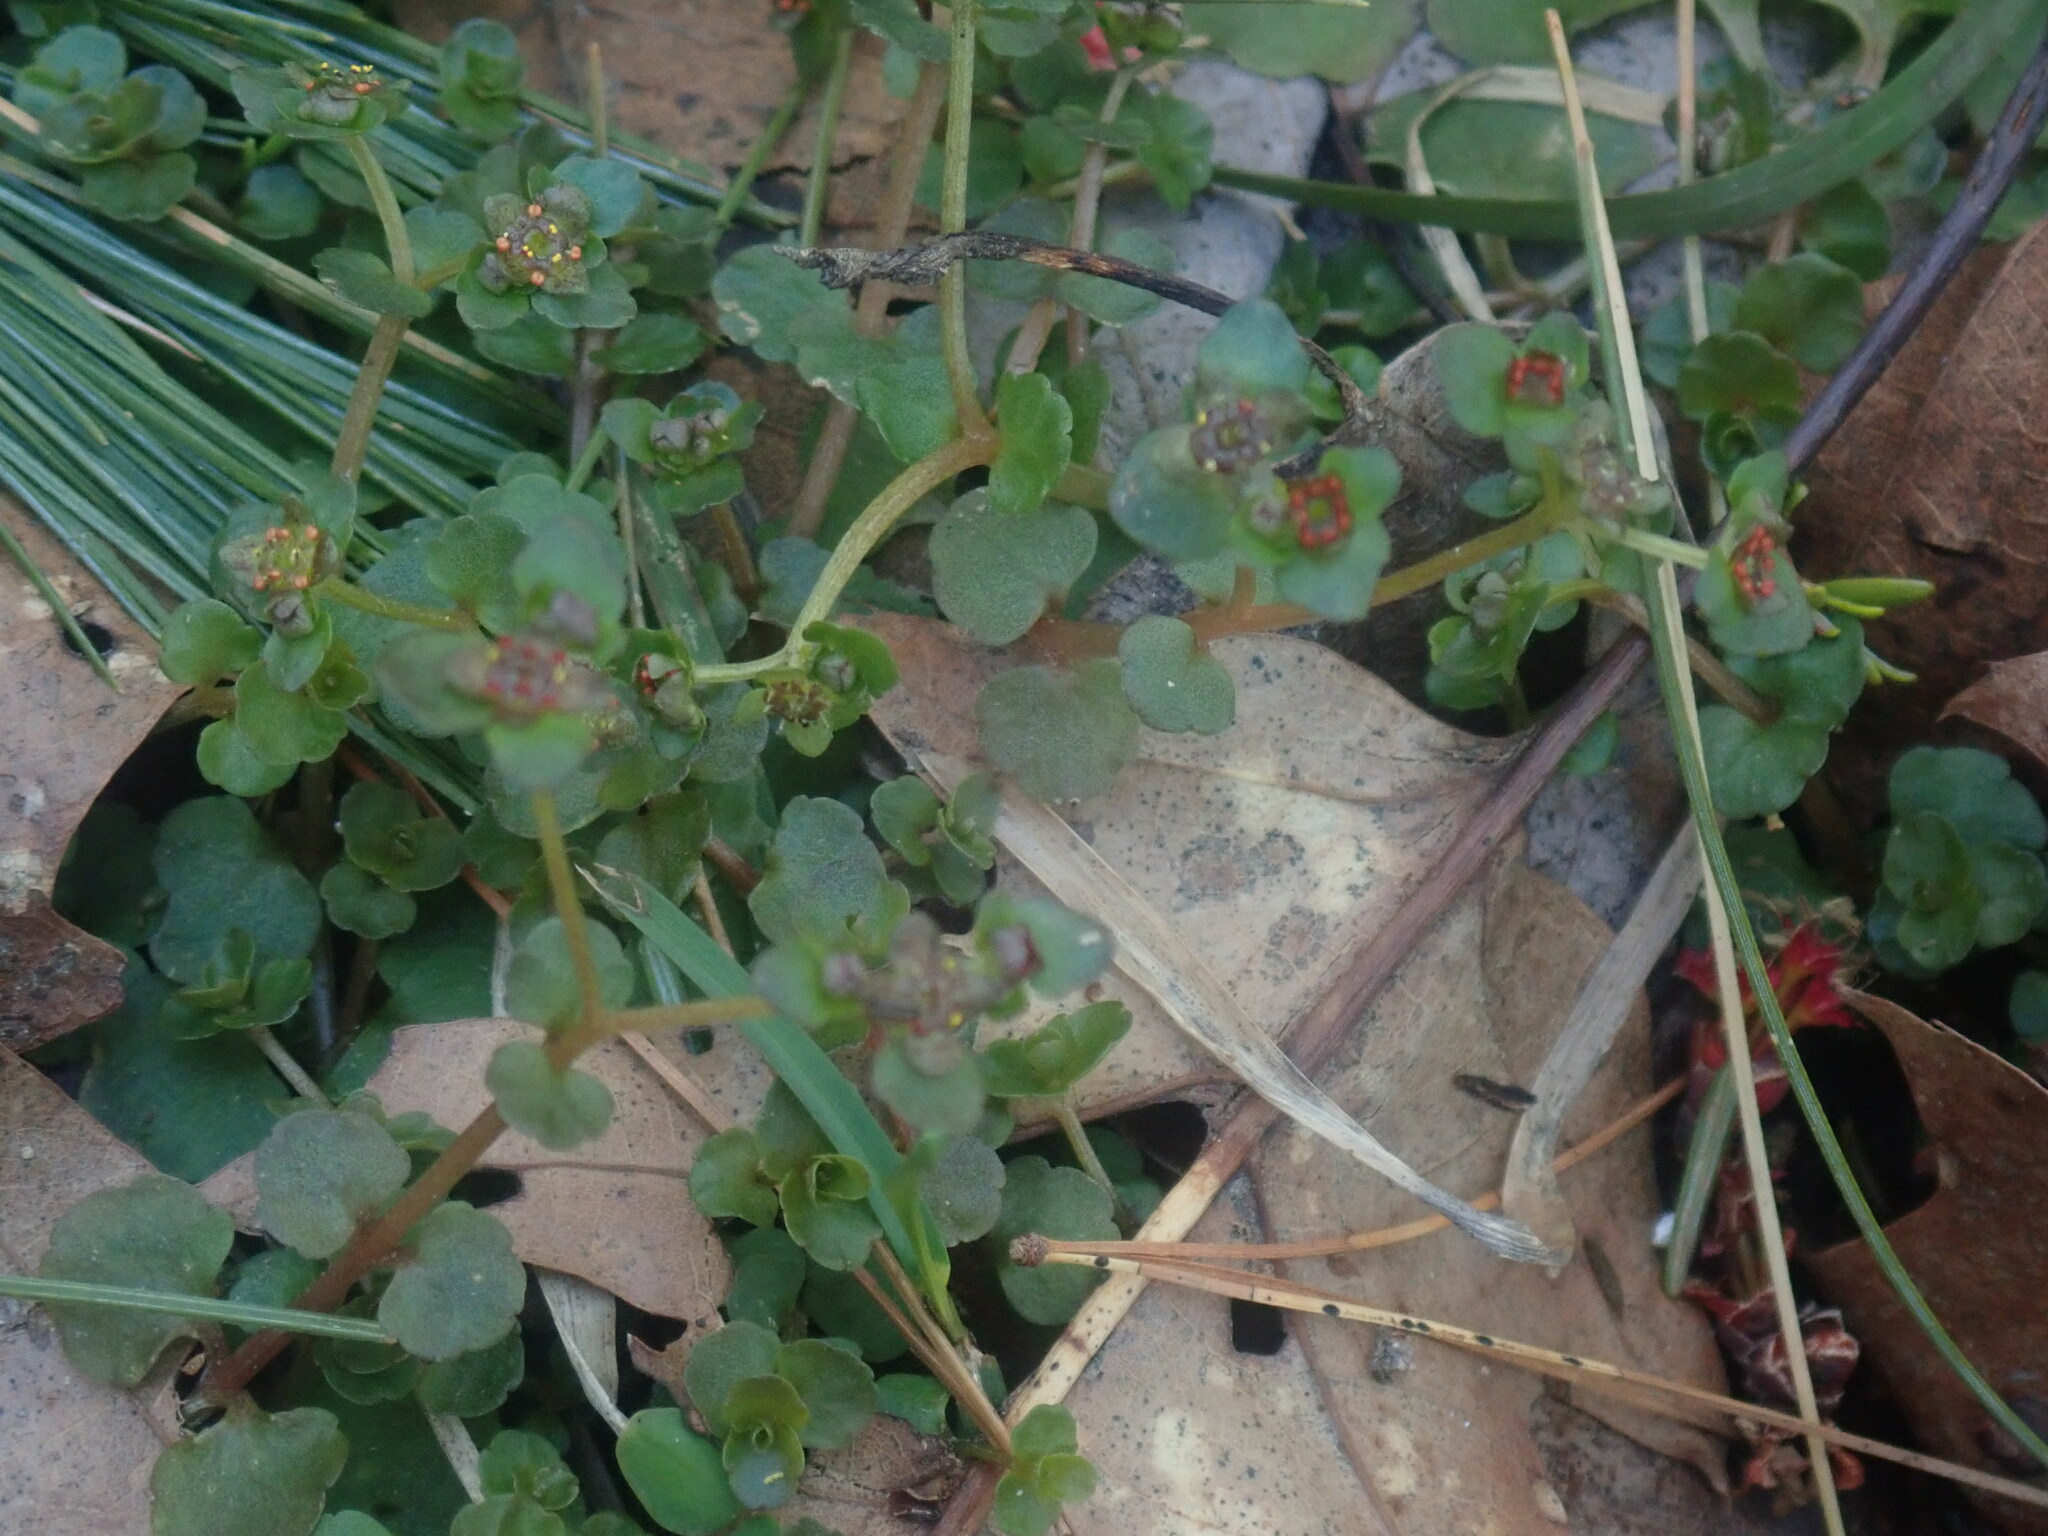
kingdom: Plantae
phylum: Tracheophyta
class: Magnoliopsida
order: Saxifragales
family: Saxifragaceae
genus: Chrysosplenium
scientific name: Chrysosplenium americanum
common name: American golden-saxifrage
